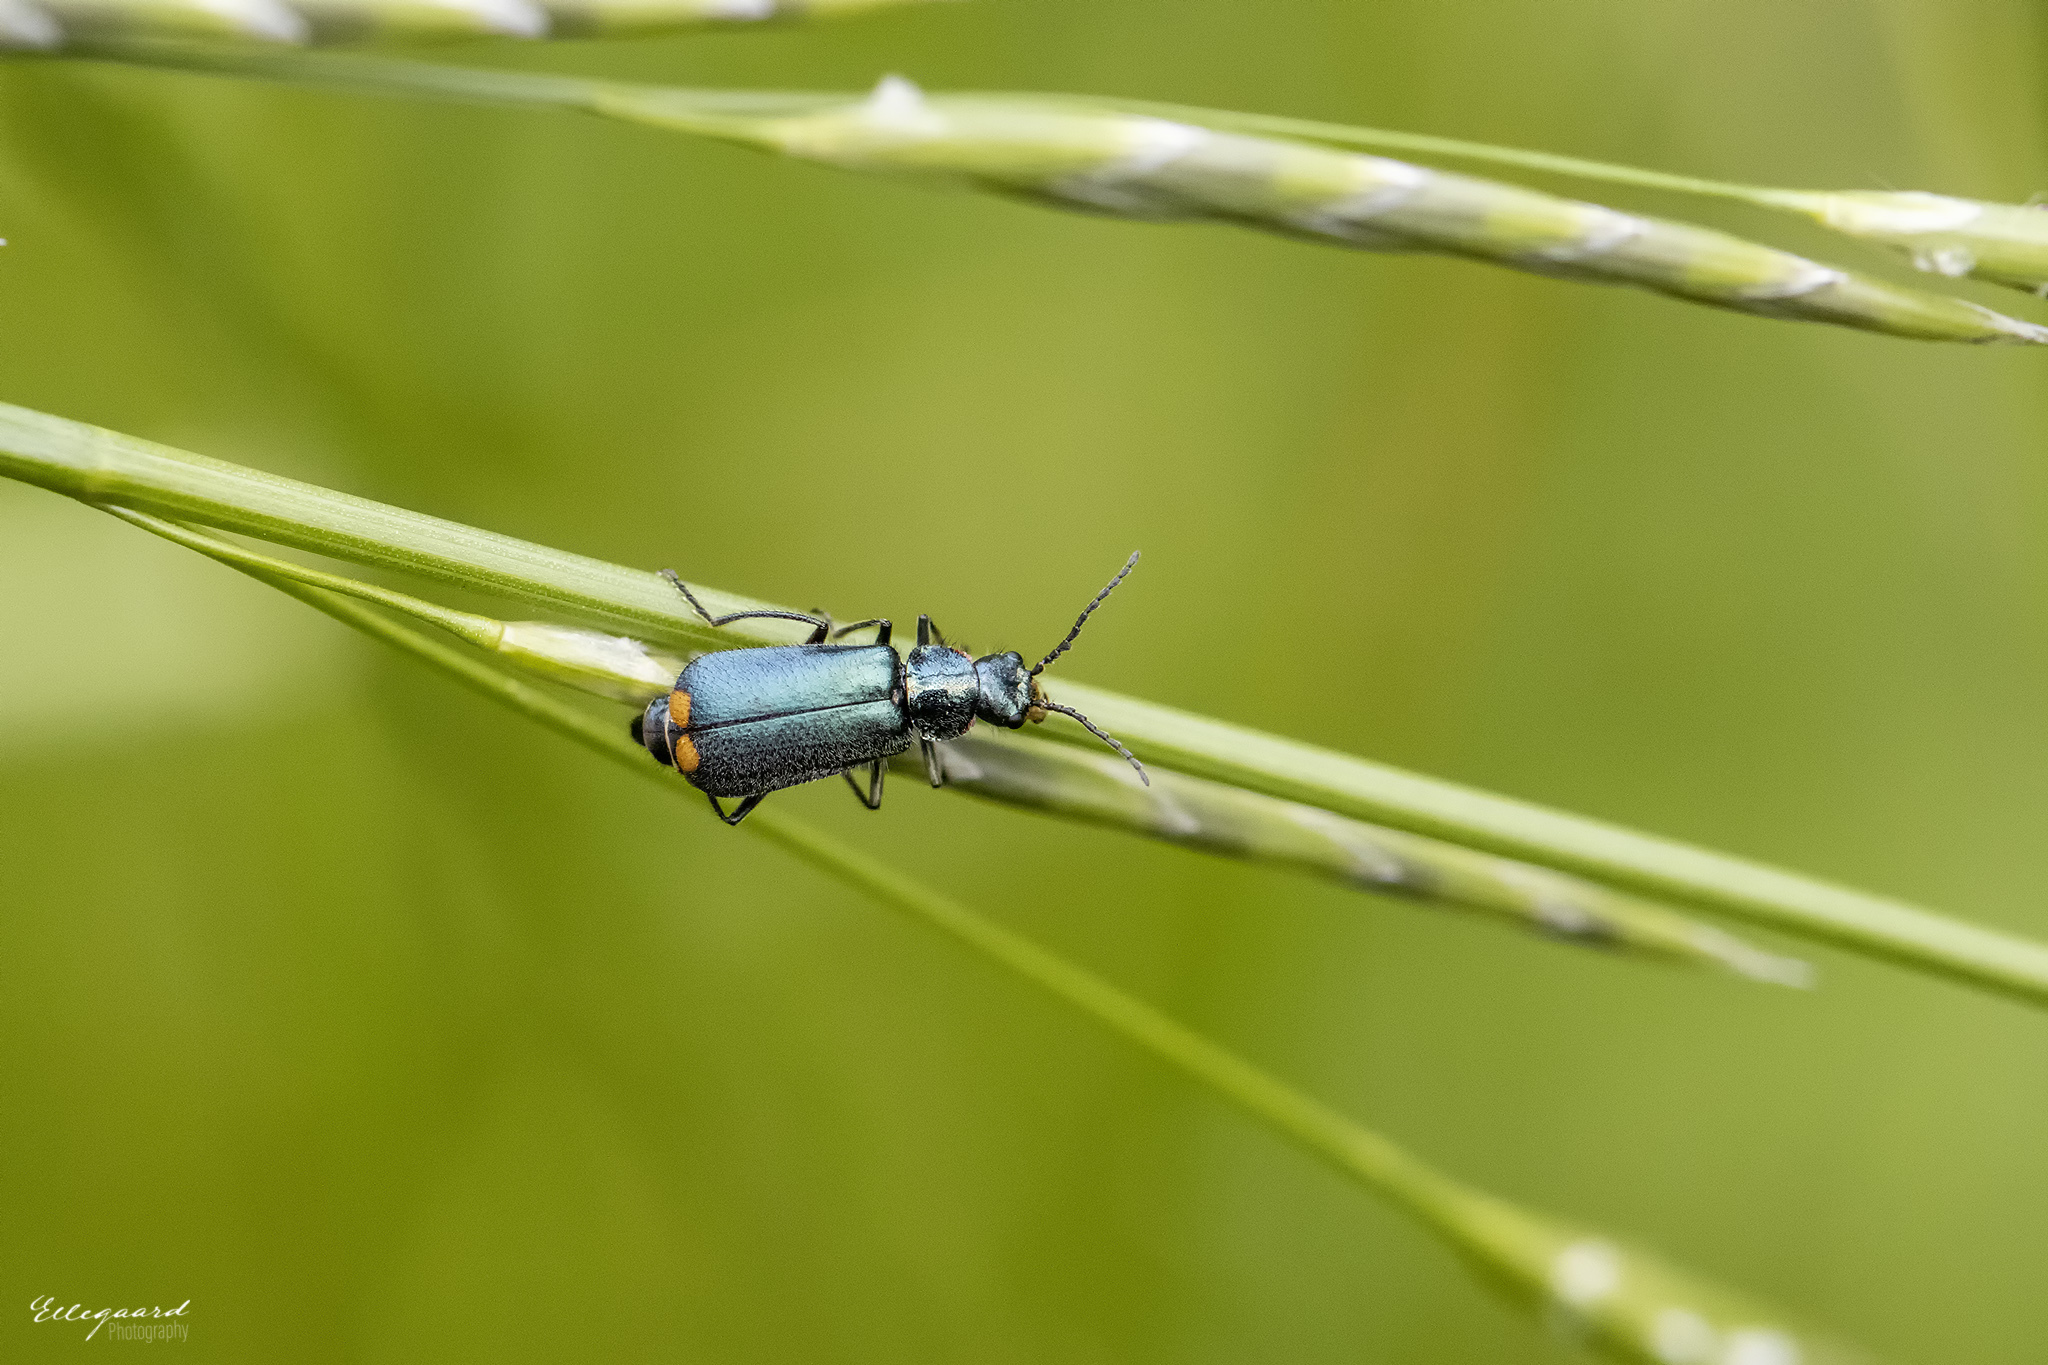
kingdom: Animalia
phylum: Arthropoda
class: Insecta
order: Coleoptera
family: Melyridae
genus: Malachius
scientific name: Malachius bipustulatus
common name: Malachite beetle
